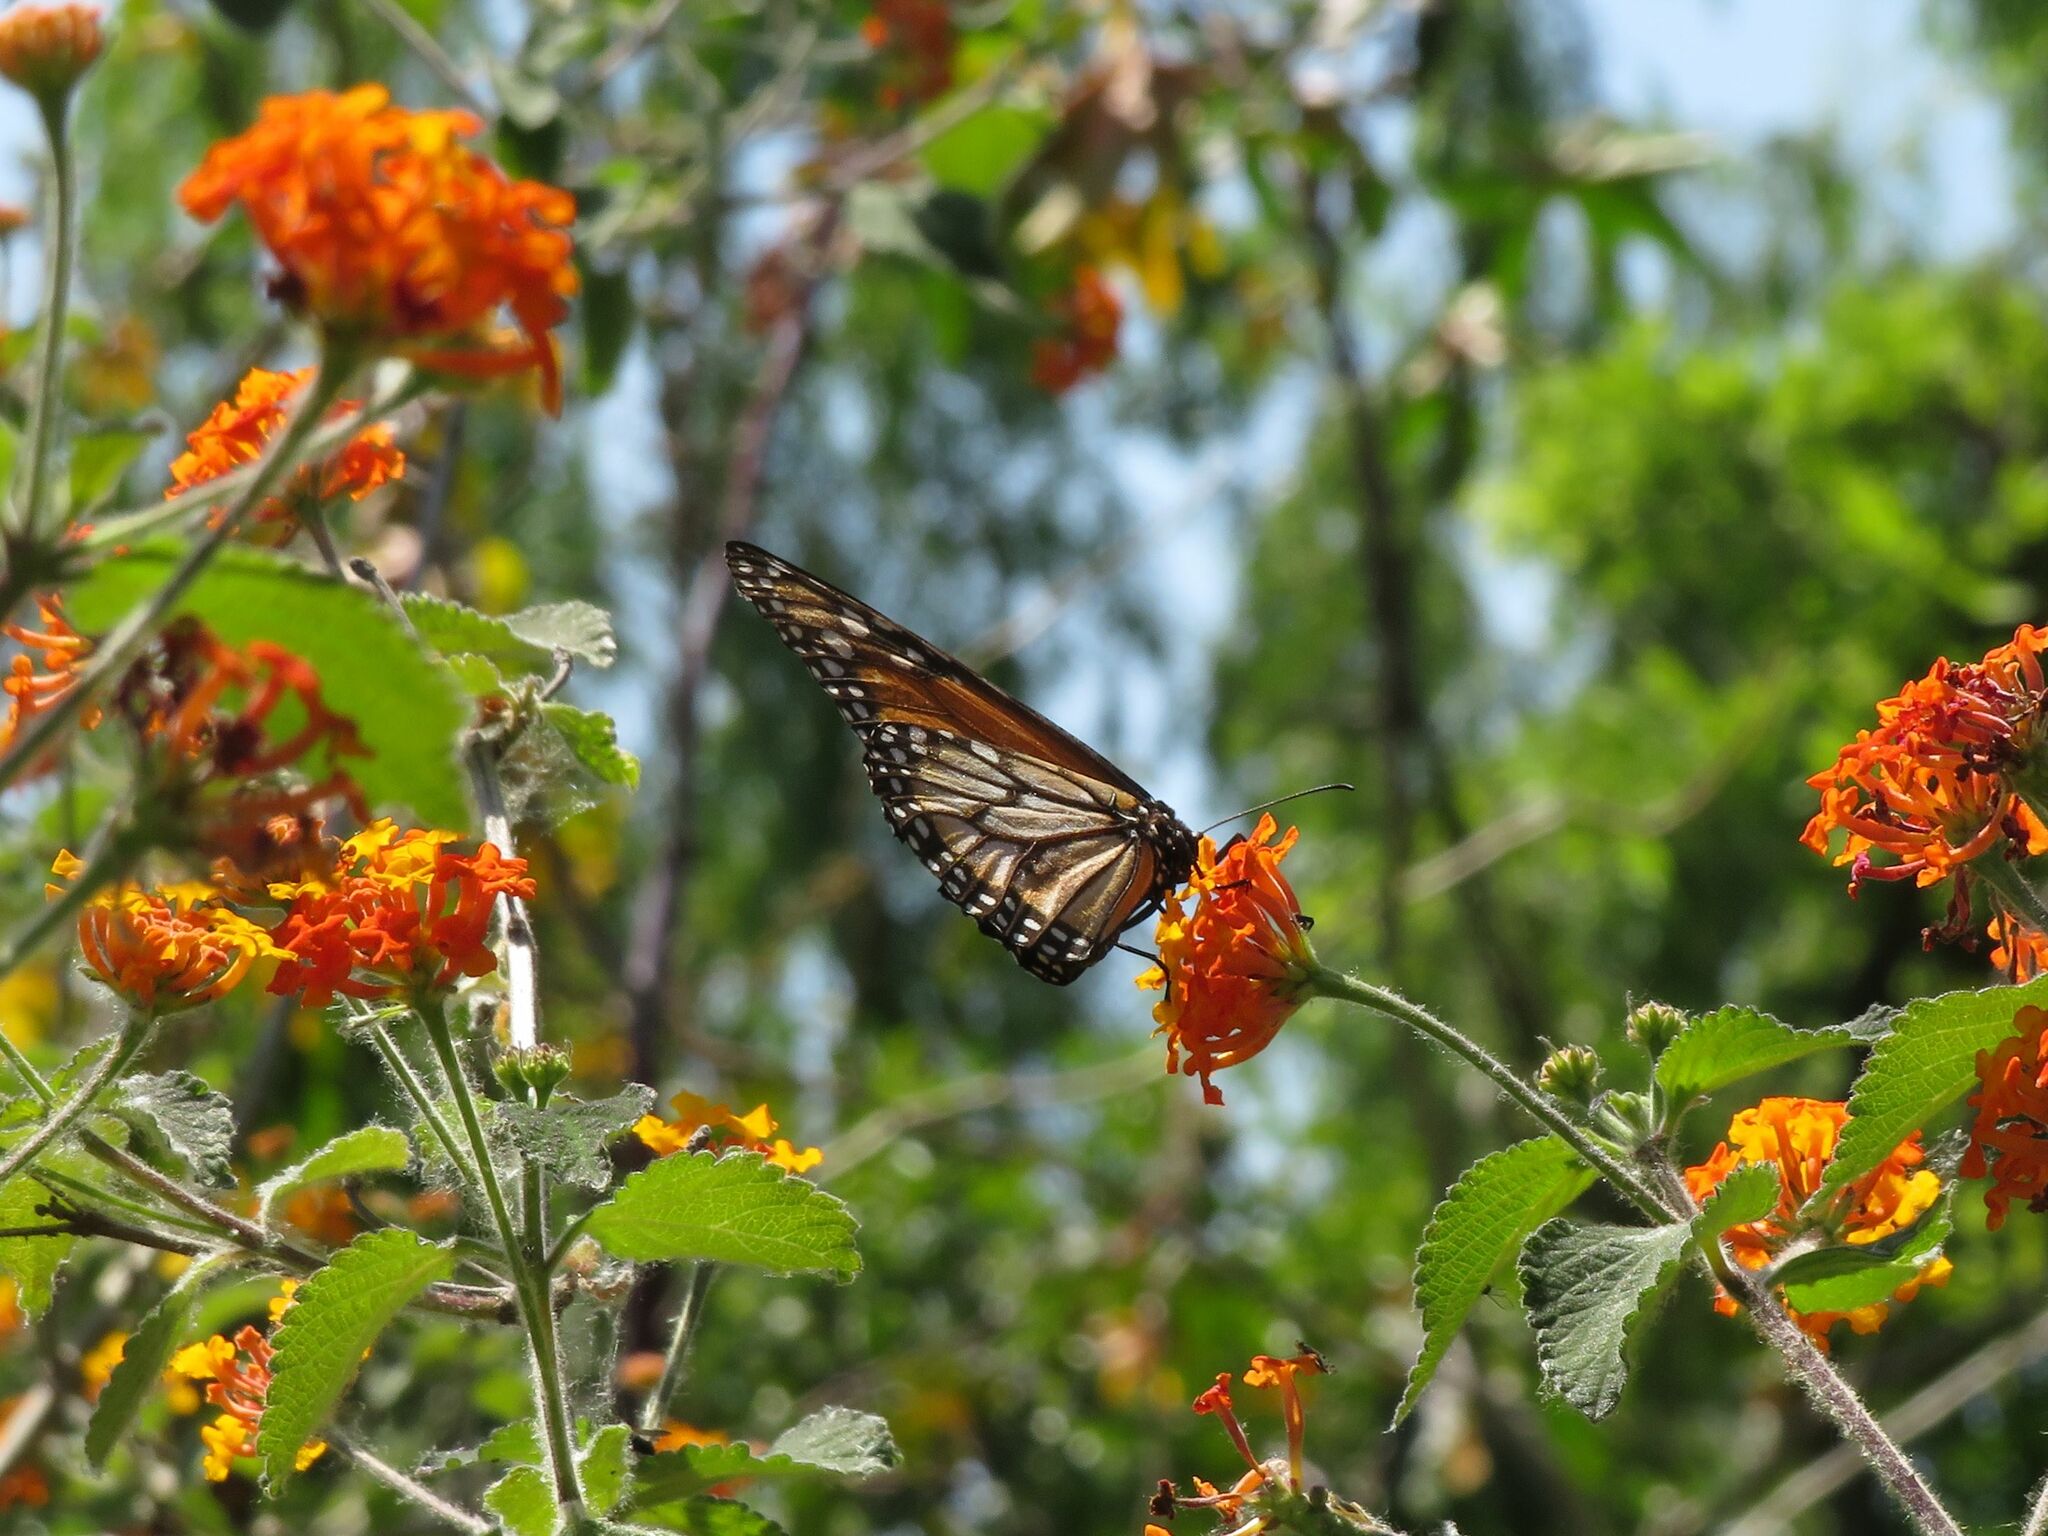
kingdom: Animalia
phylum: Arthropoda
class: Insecta
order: Lepidoptera
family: Nymphalidae
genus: Danaus
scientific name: Danaus erippus
